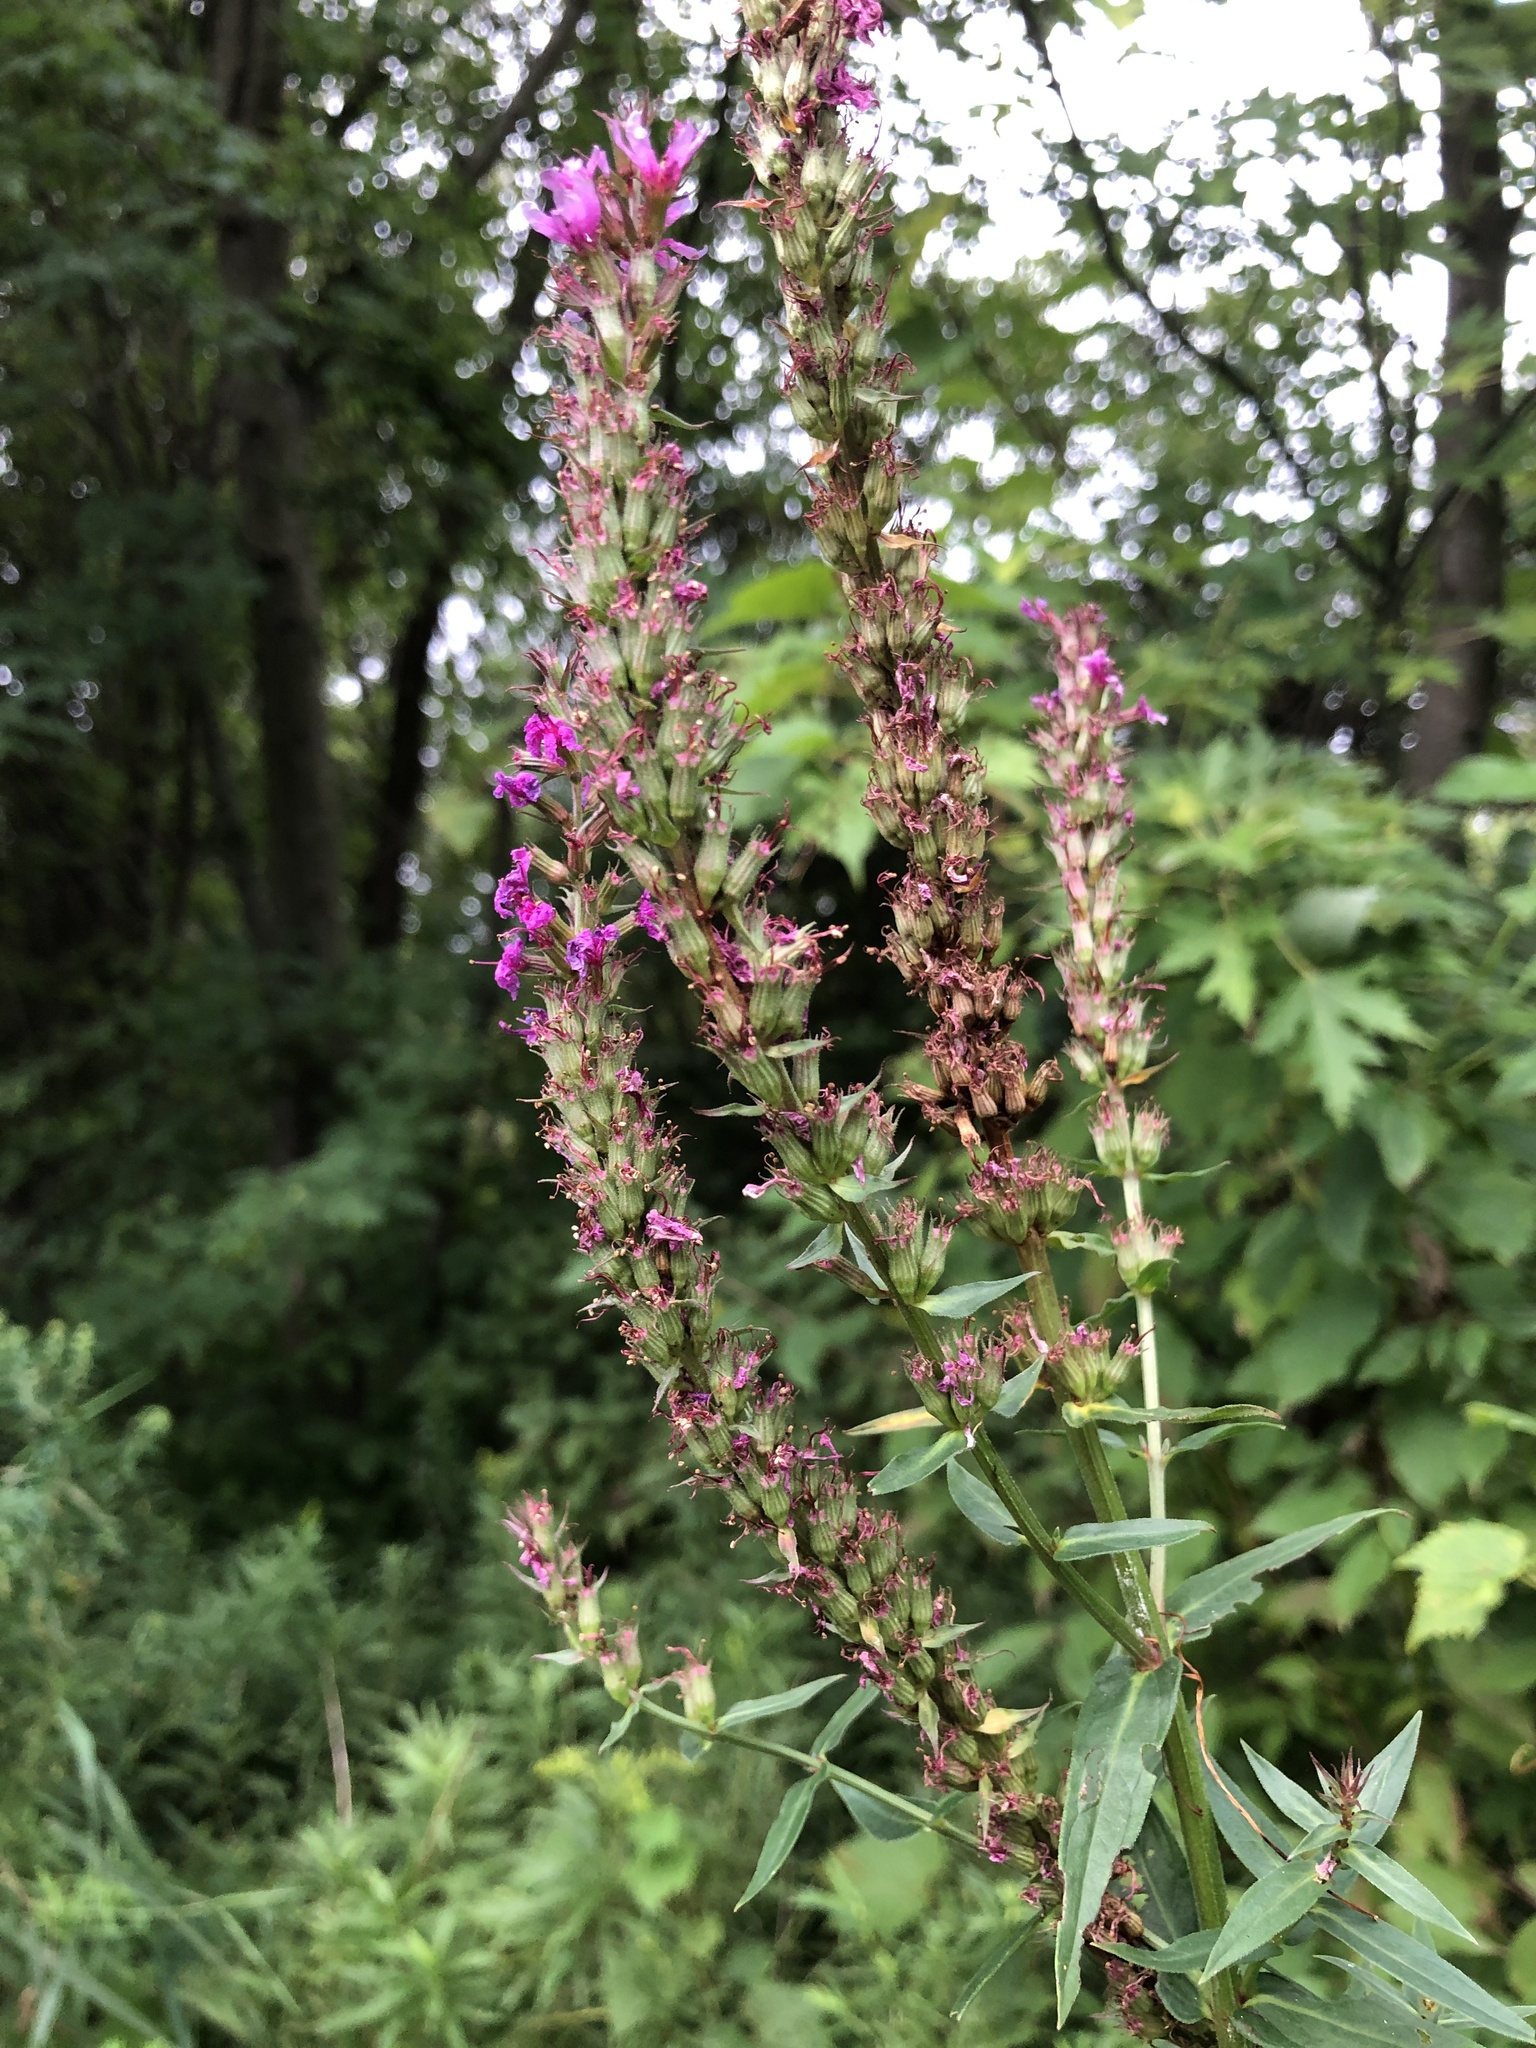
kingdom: Plantae
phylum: Tracheophyta
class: Magnoliopsida
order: Myrtales
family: Lythraceae
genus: Lythrum
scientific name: Lythrum salicaria
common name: Purple loosestrife
